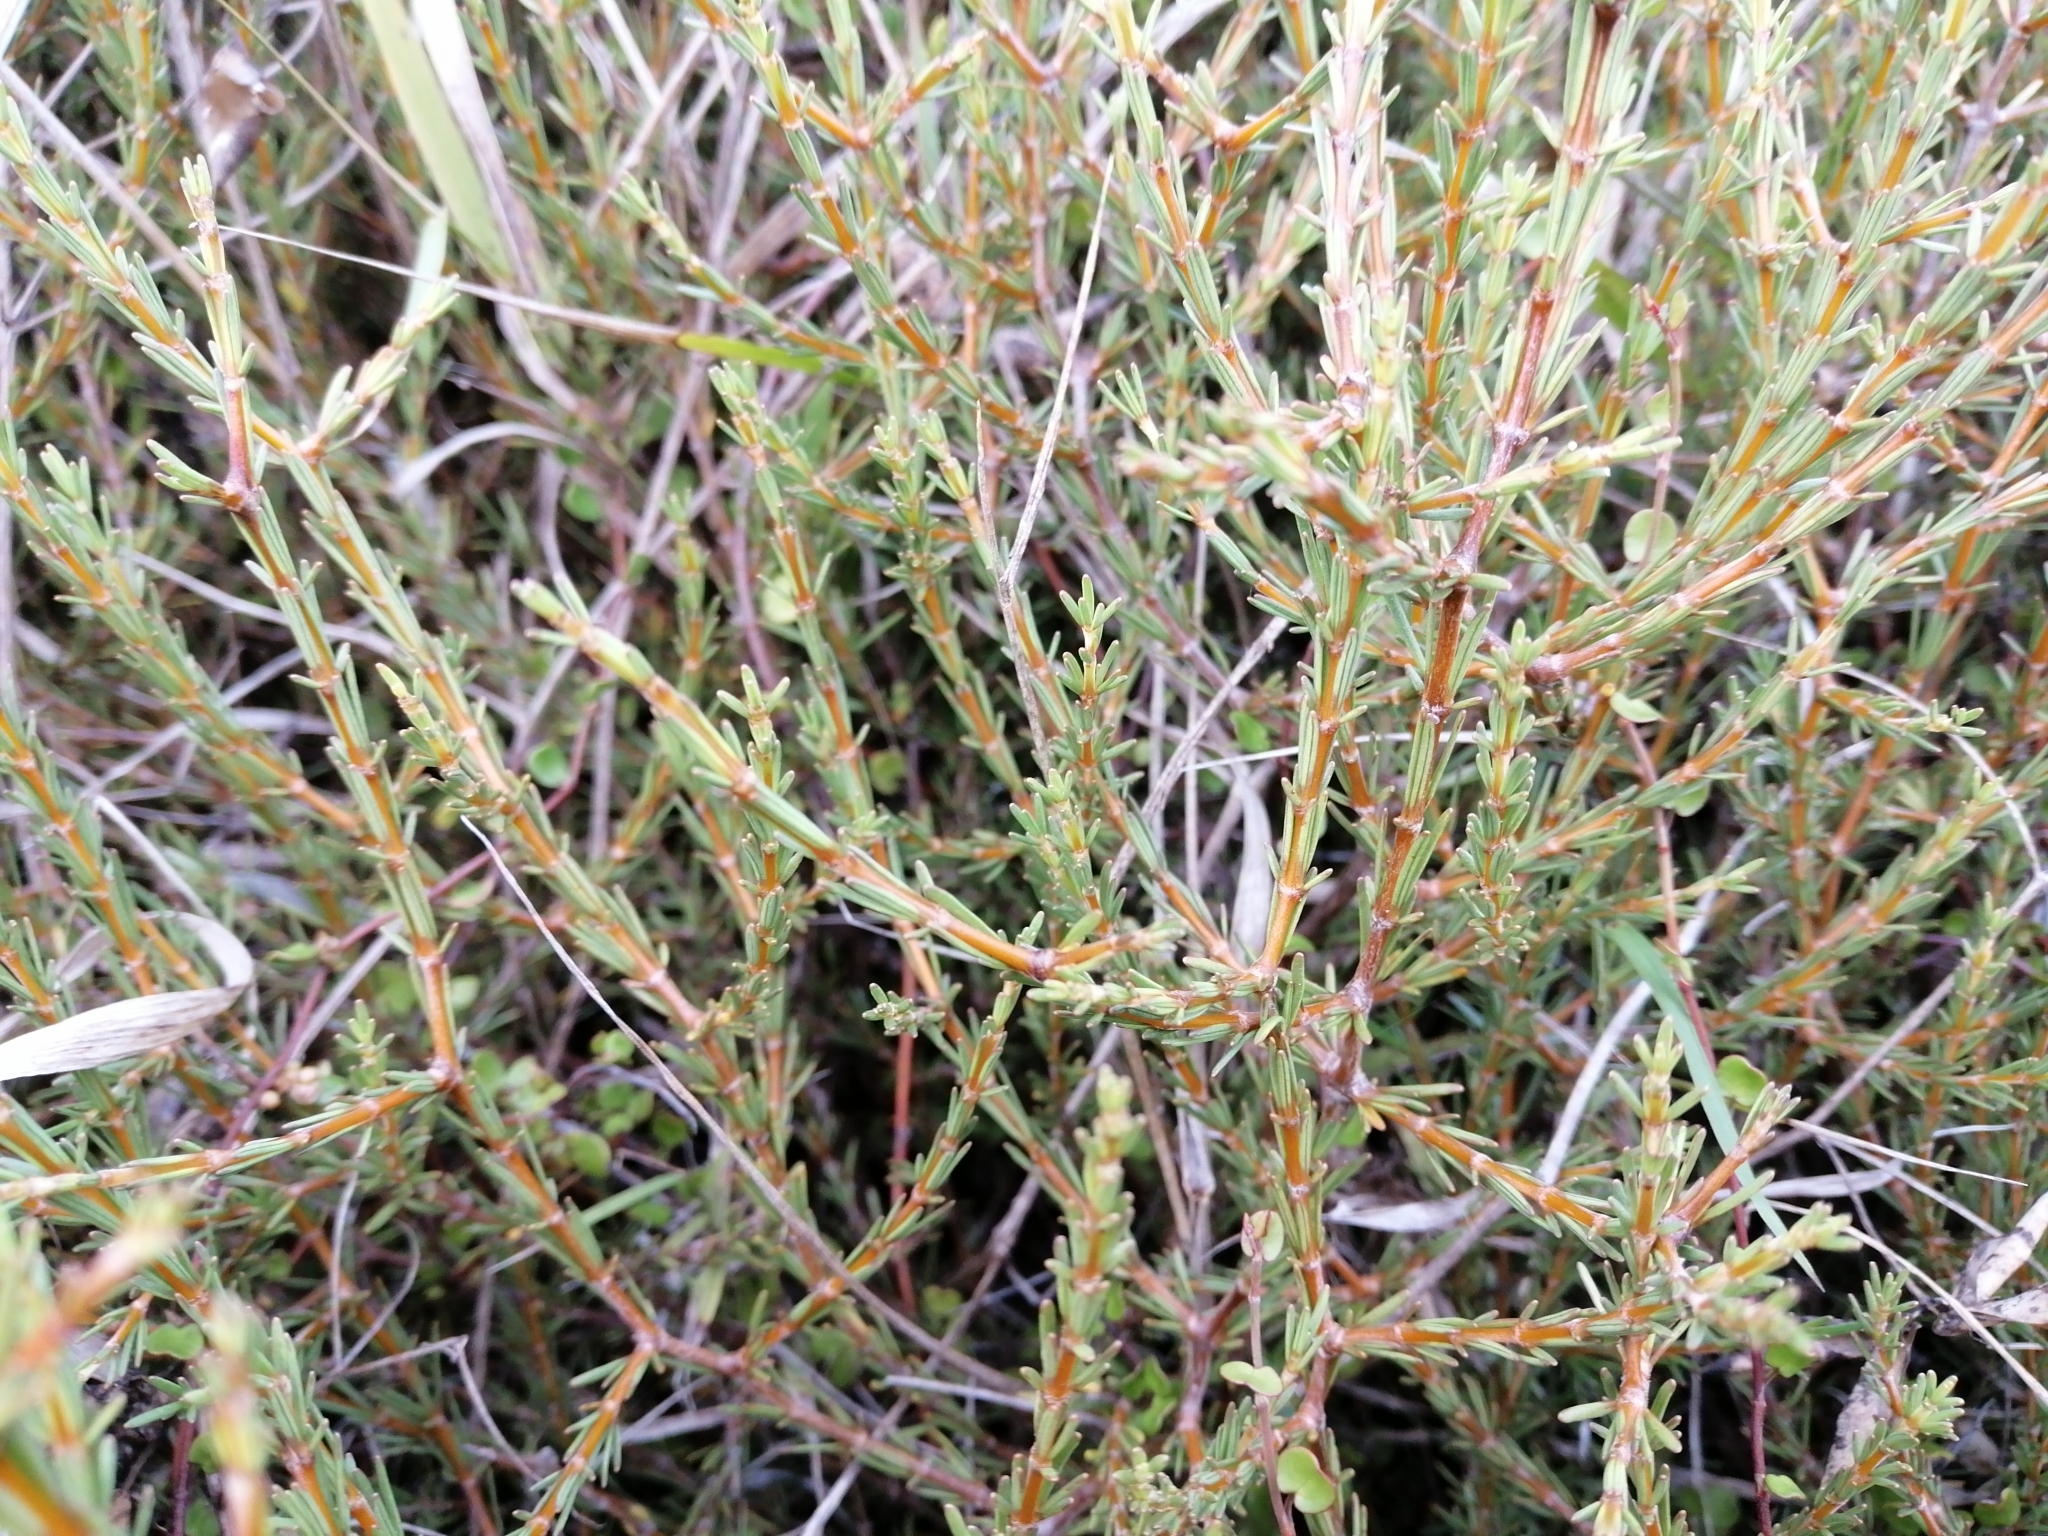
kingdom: Plantae
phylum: Tracheophyta
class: Magnoliopsida
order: Gentianales
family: Rubiaceae
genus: Coprosma
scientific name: Coprosma acerosa
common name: Sand coprosma
